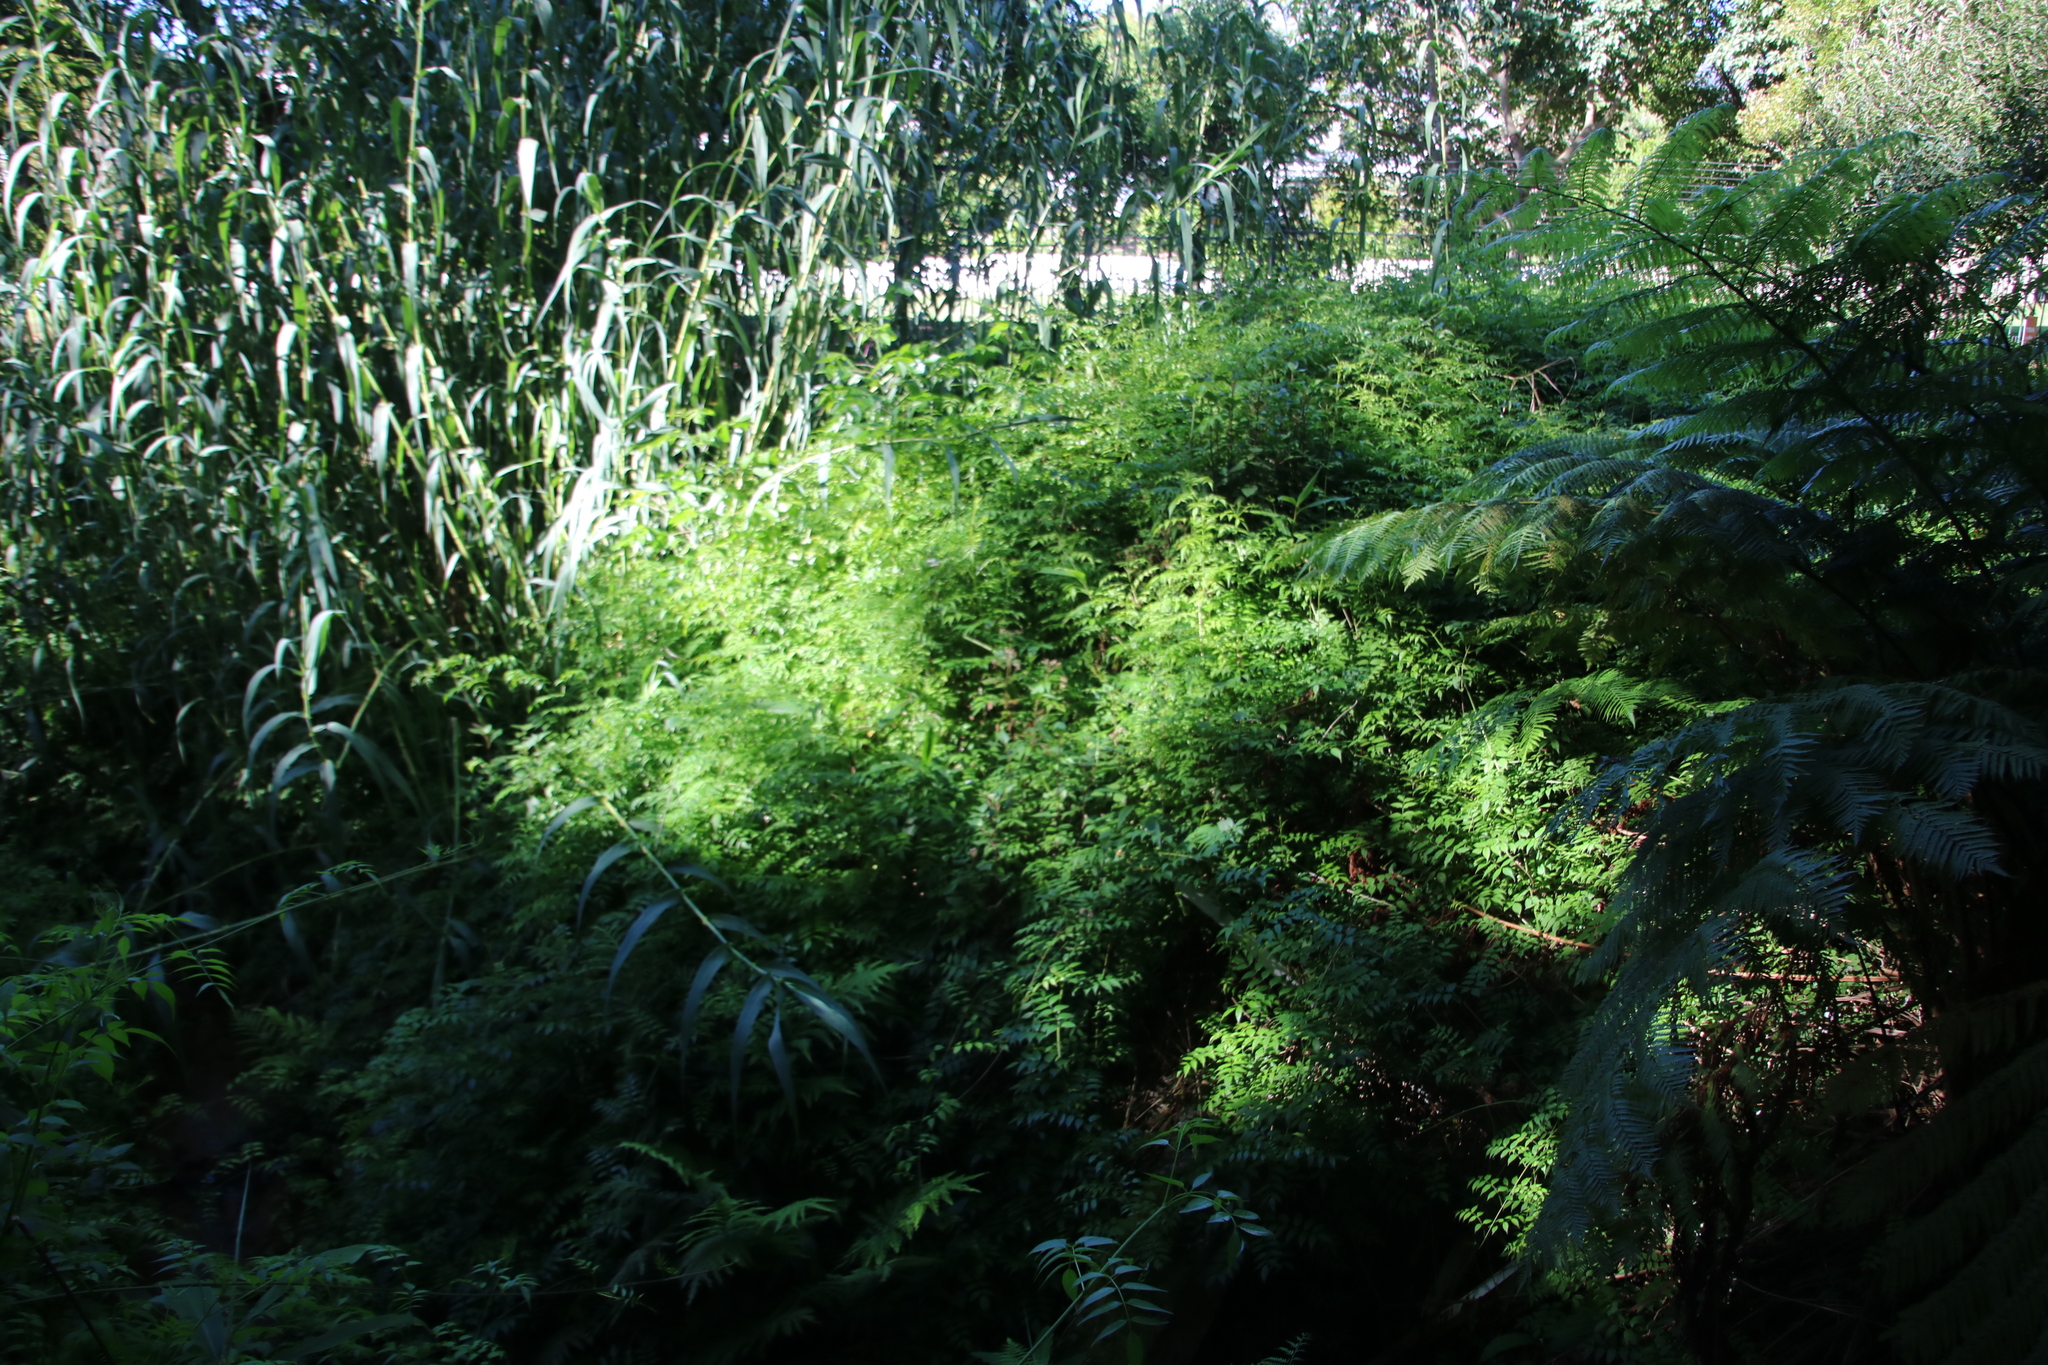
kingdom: Plantae
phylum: Tracheophyta
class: Magnoliopsida
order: Lamiales
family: Bignoniaceae
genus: Podranea
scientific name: Podranea ricasoliana
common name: Zimbabwe creeper
